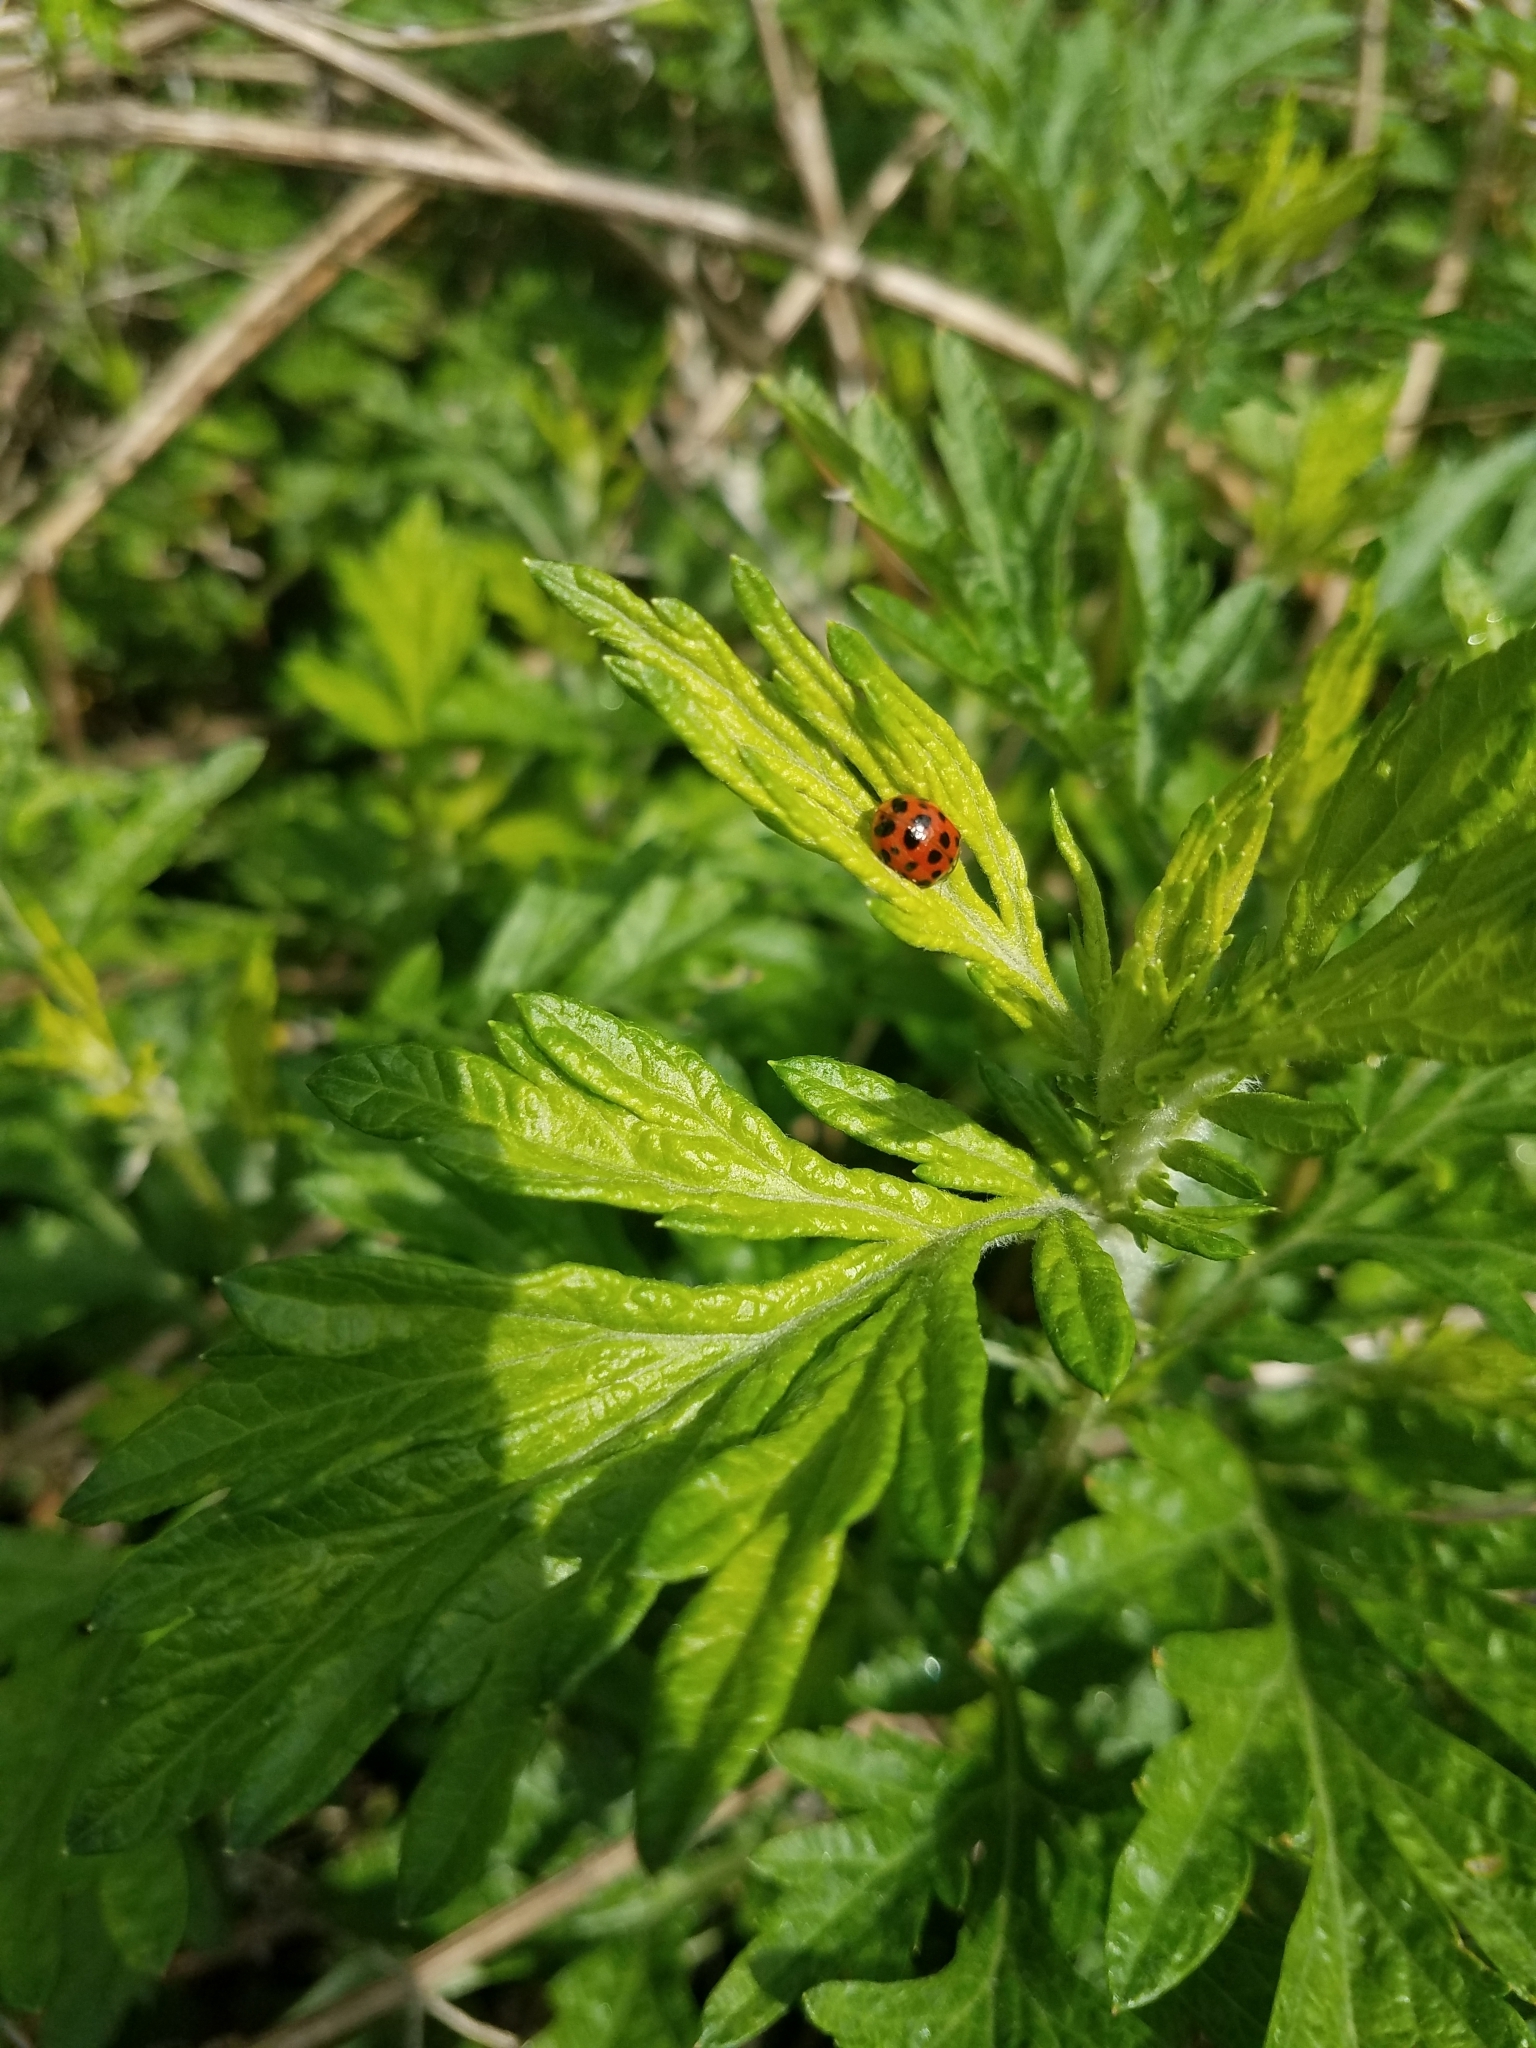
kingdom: Animalia
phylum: Arthropoda
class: Insecta
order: Coleoptera
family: Coccinellidae
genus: Harmonia
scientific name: Harmonia axyridis
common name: Harlequin ladybird
